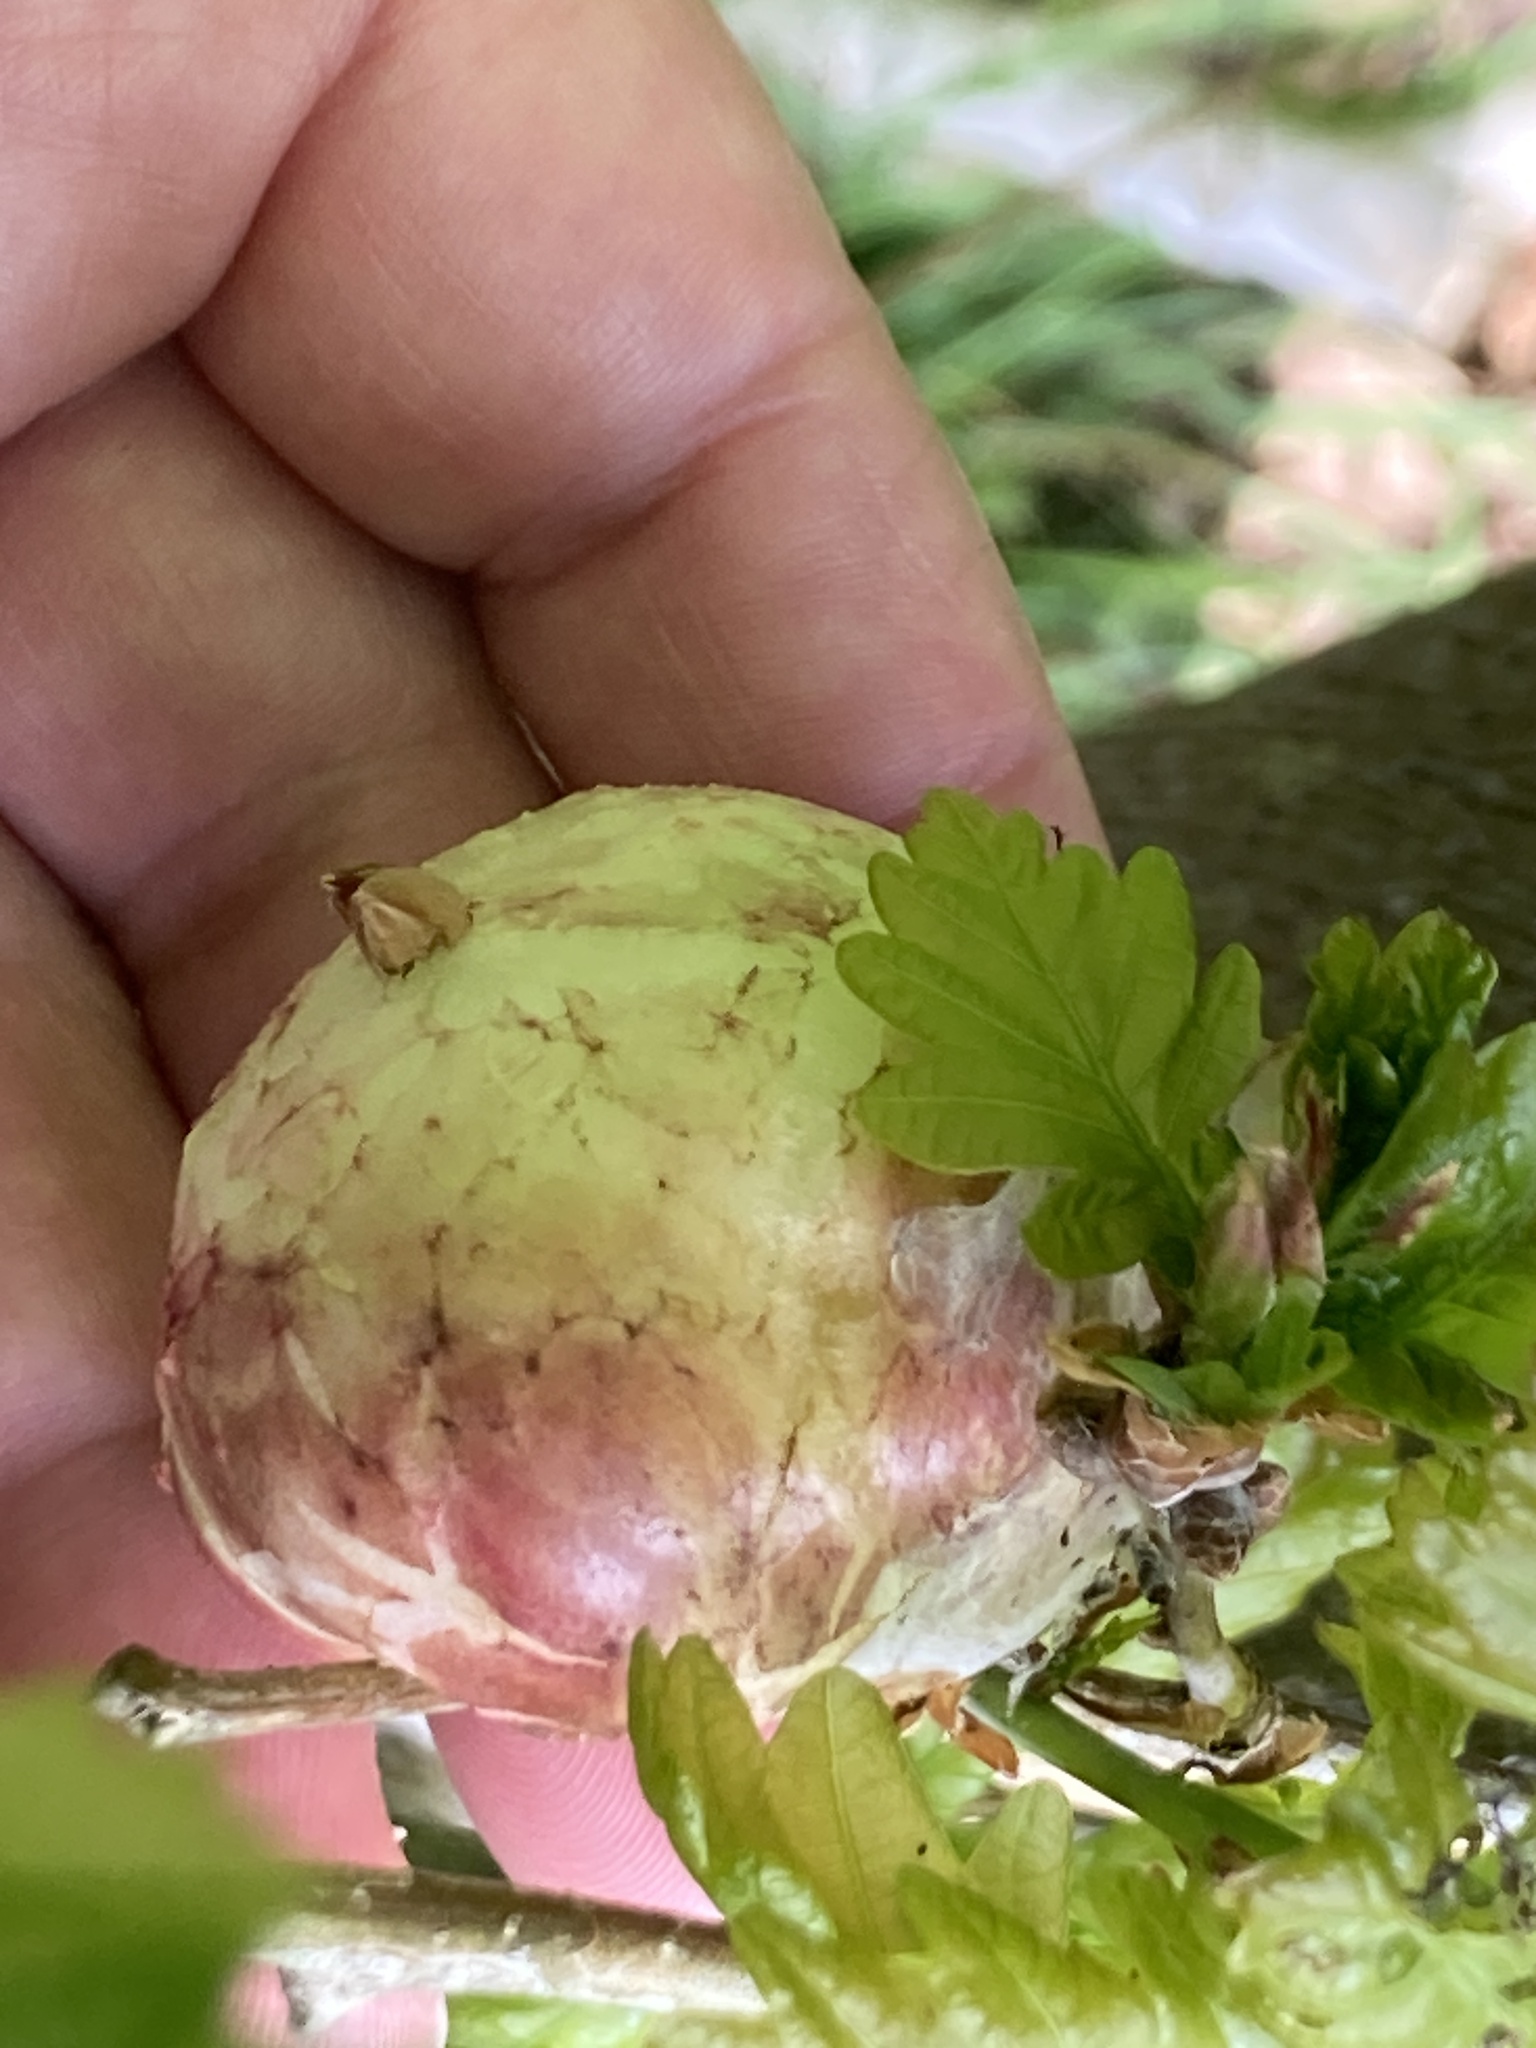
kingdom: Animalia
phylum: Arthropoda
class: Insecta
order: Hymenoptera
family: Cynipidae
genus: Biorhiza
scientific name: Biorhiza pallida
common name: Oak apple
